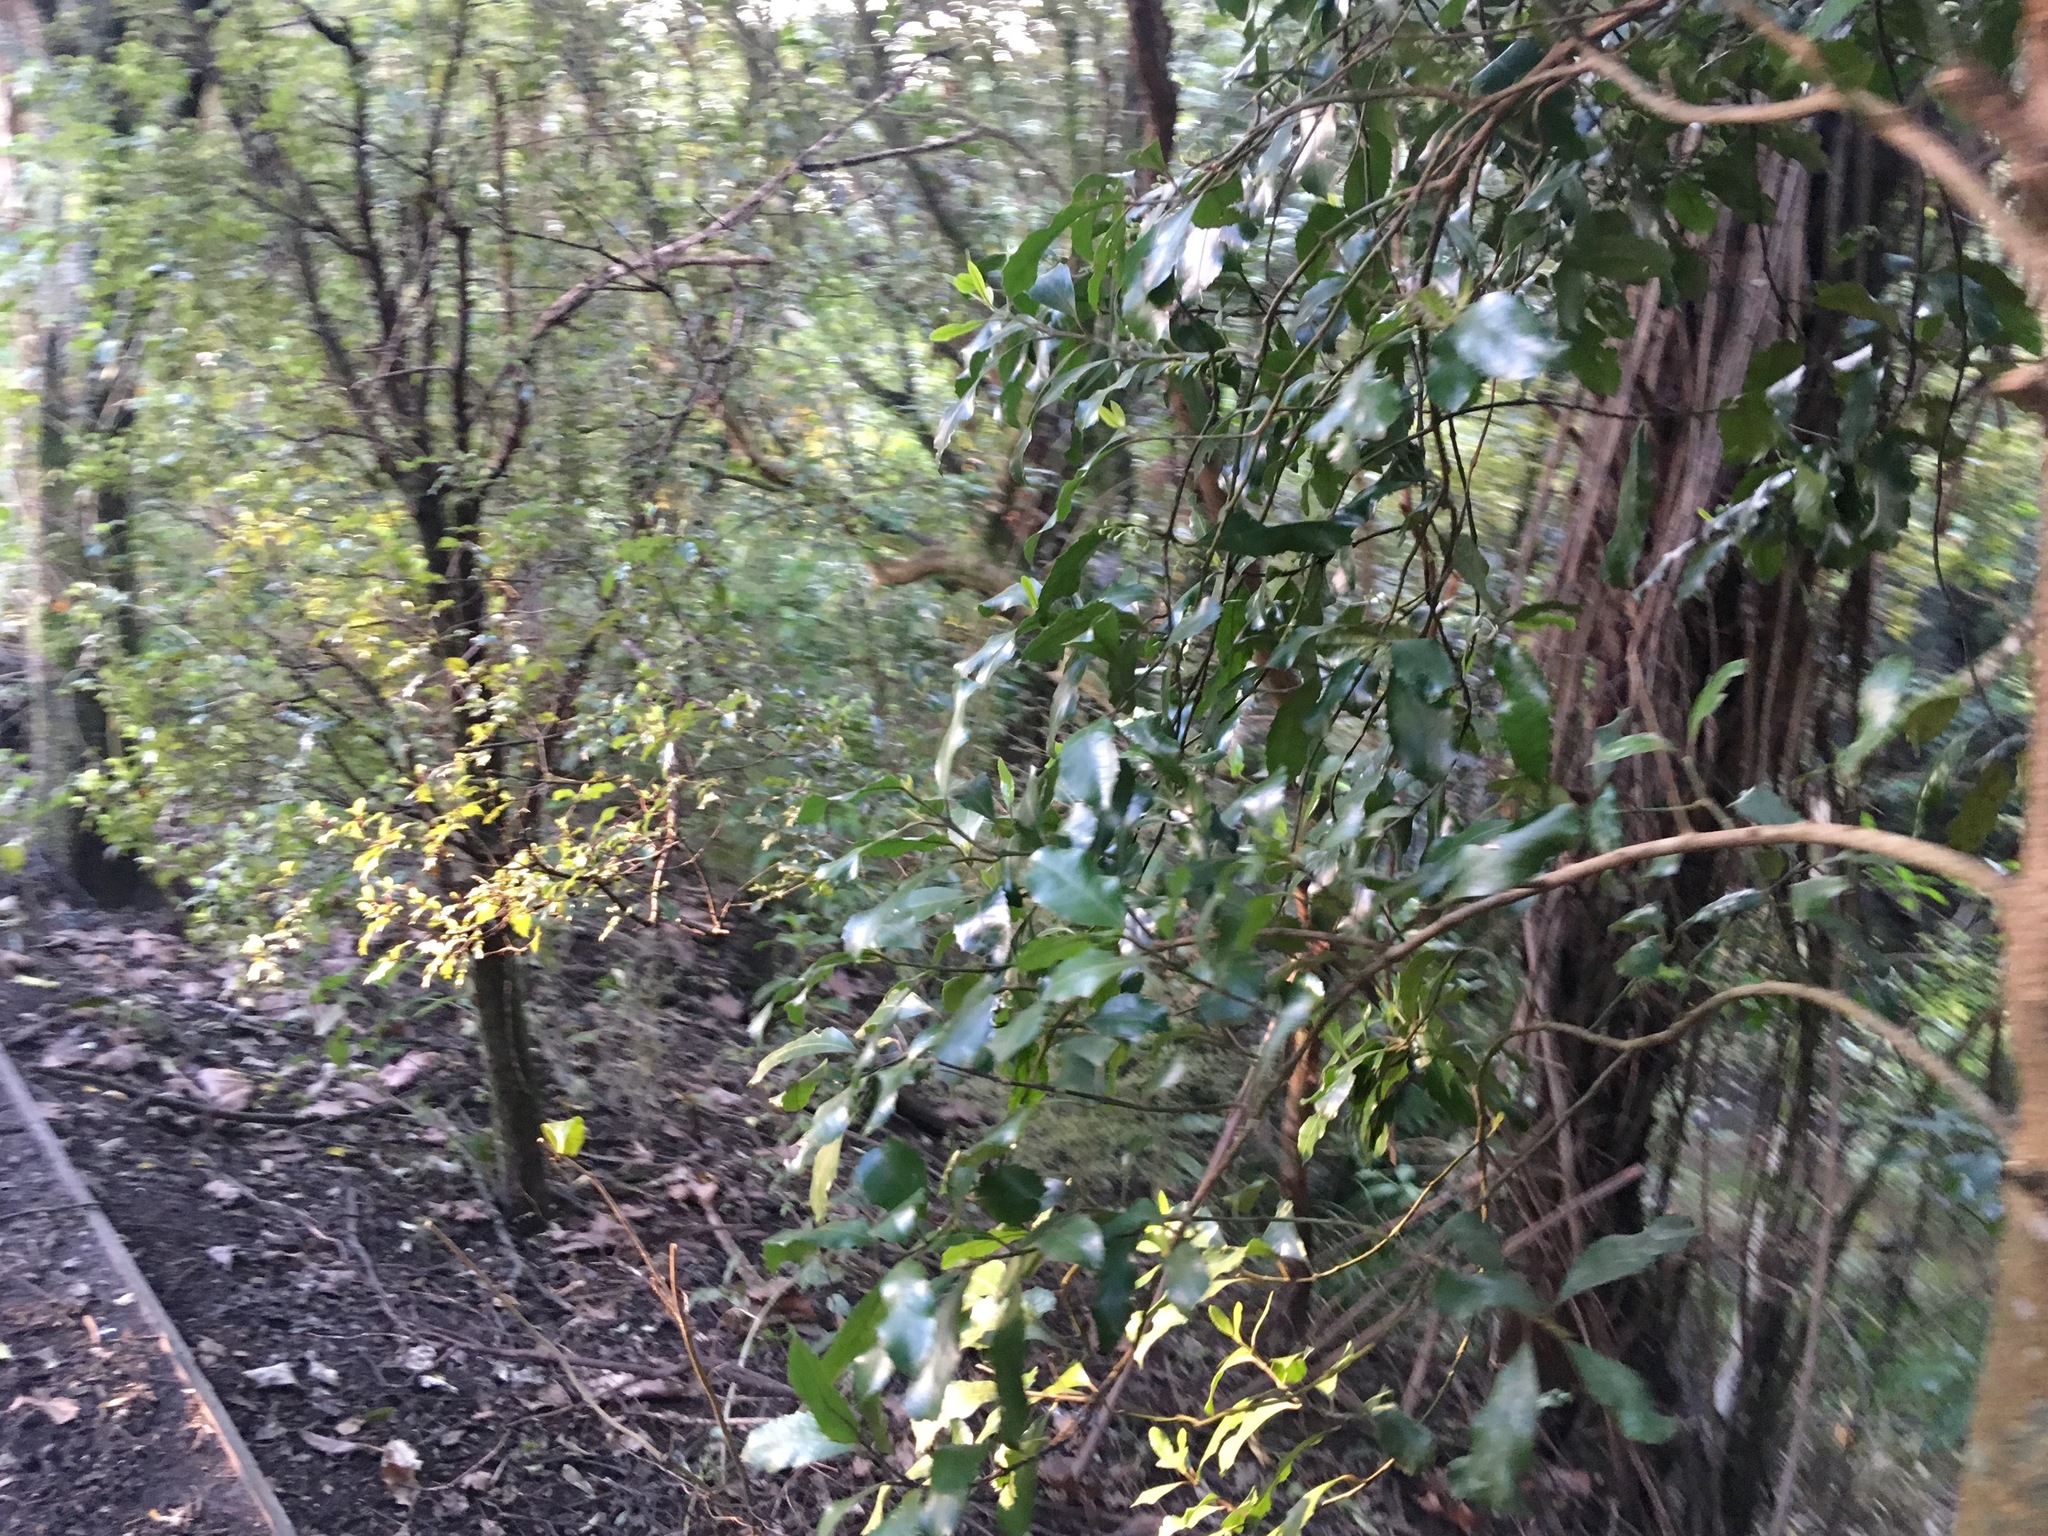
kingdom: Plantae
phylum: Tracheophyta
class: Magnoliopsida
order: Laurales
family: Monimiaceae
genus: Hedycarya
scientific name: Hedycarya arborea
